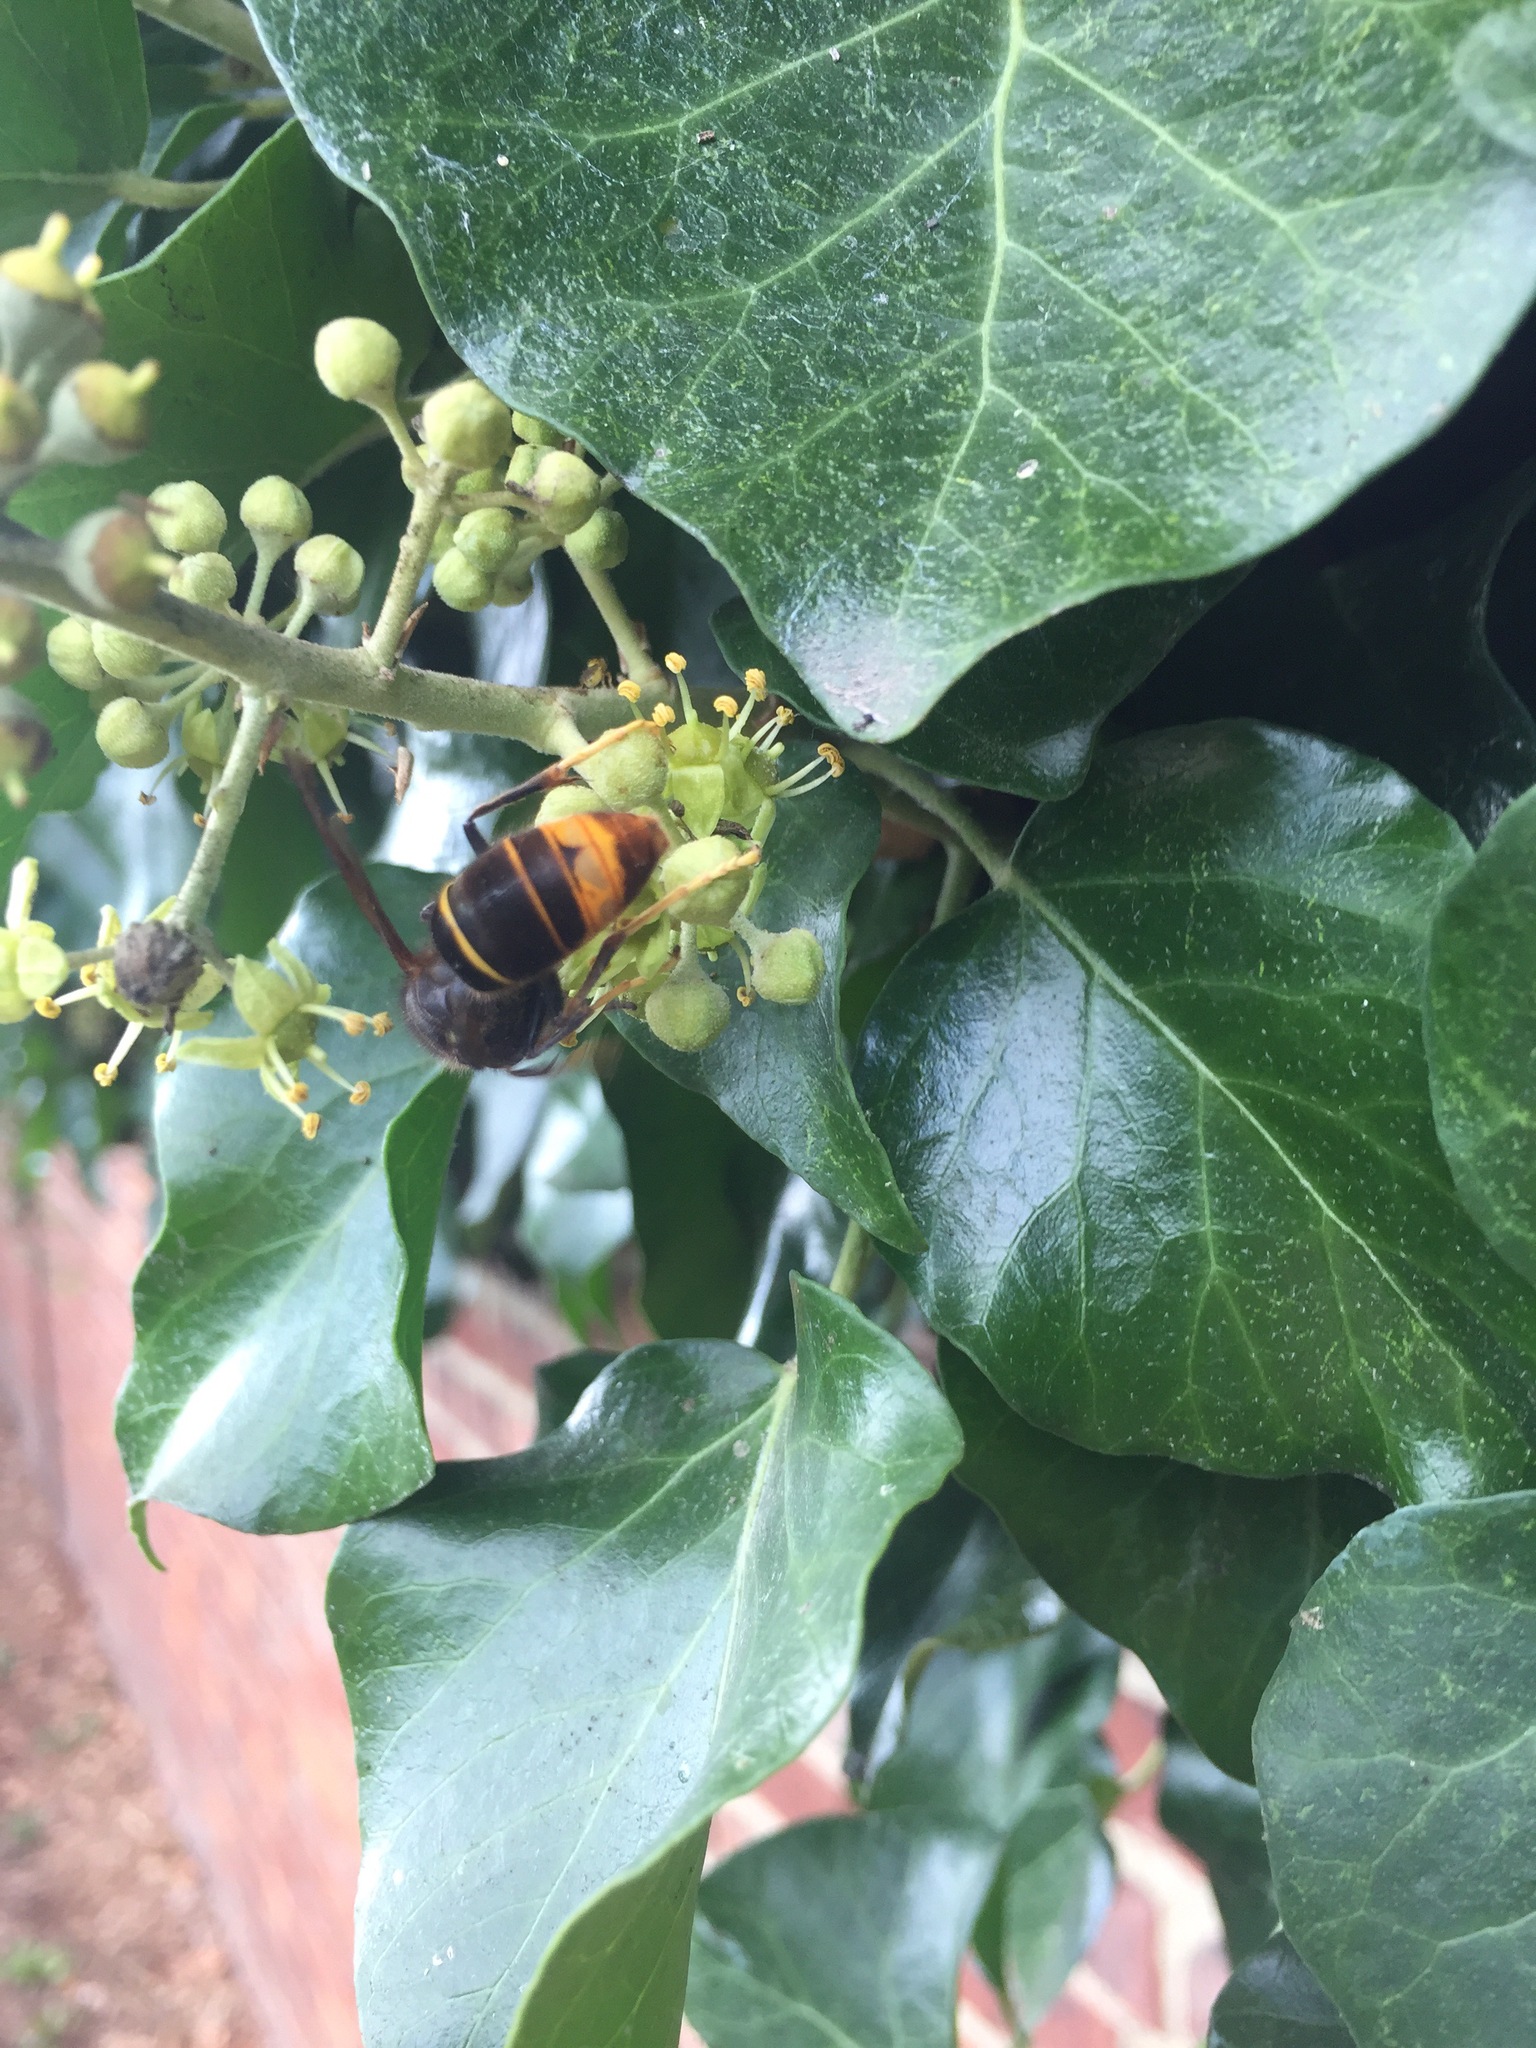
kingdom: Animalia
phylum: Arthropoda
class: Insecta
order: Hymenoptera
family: Vespidae
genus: Vespa
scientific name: Vespa velutina
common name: Asian hornet
